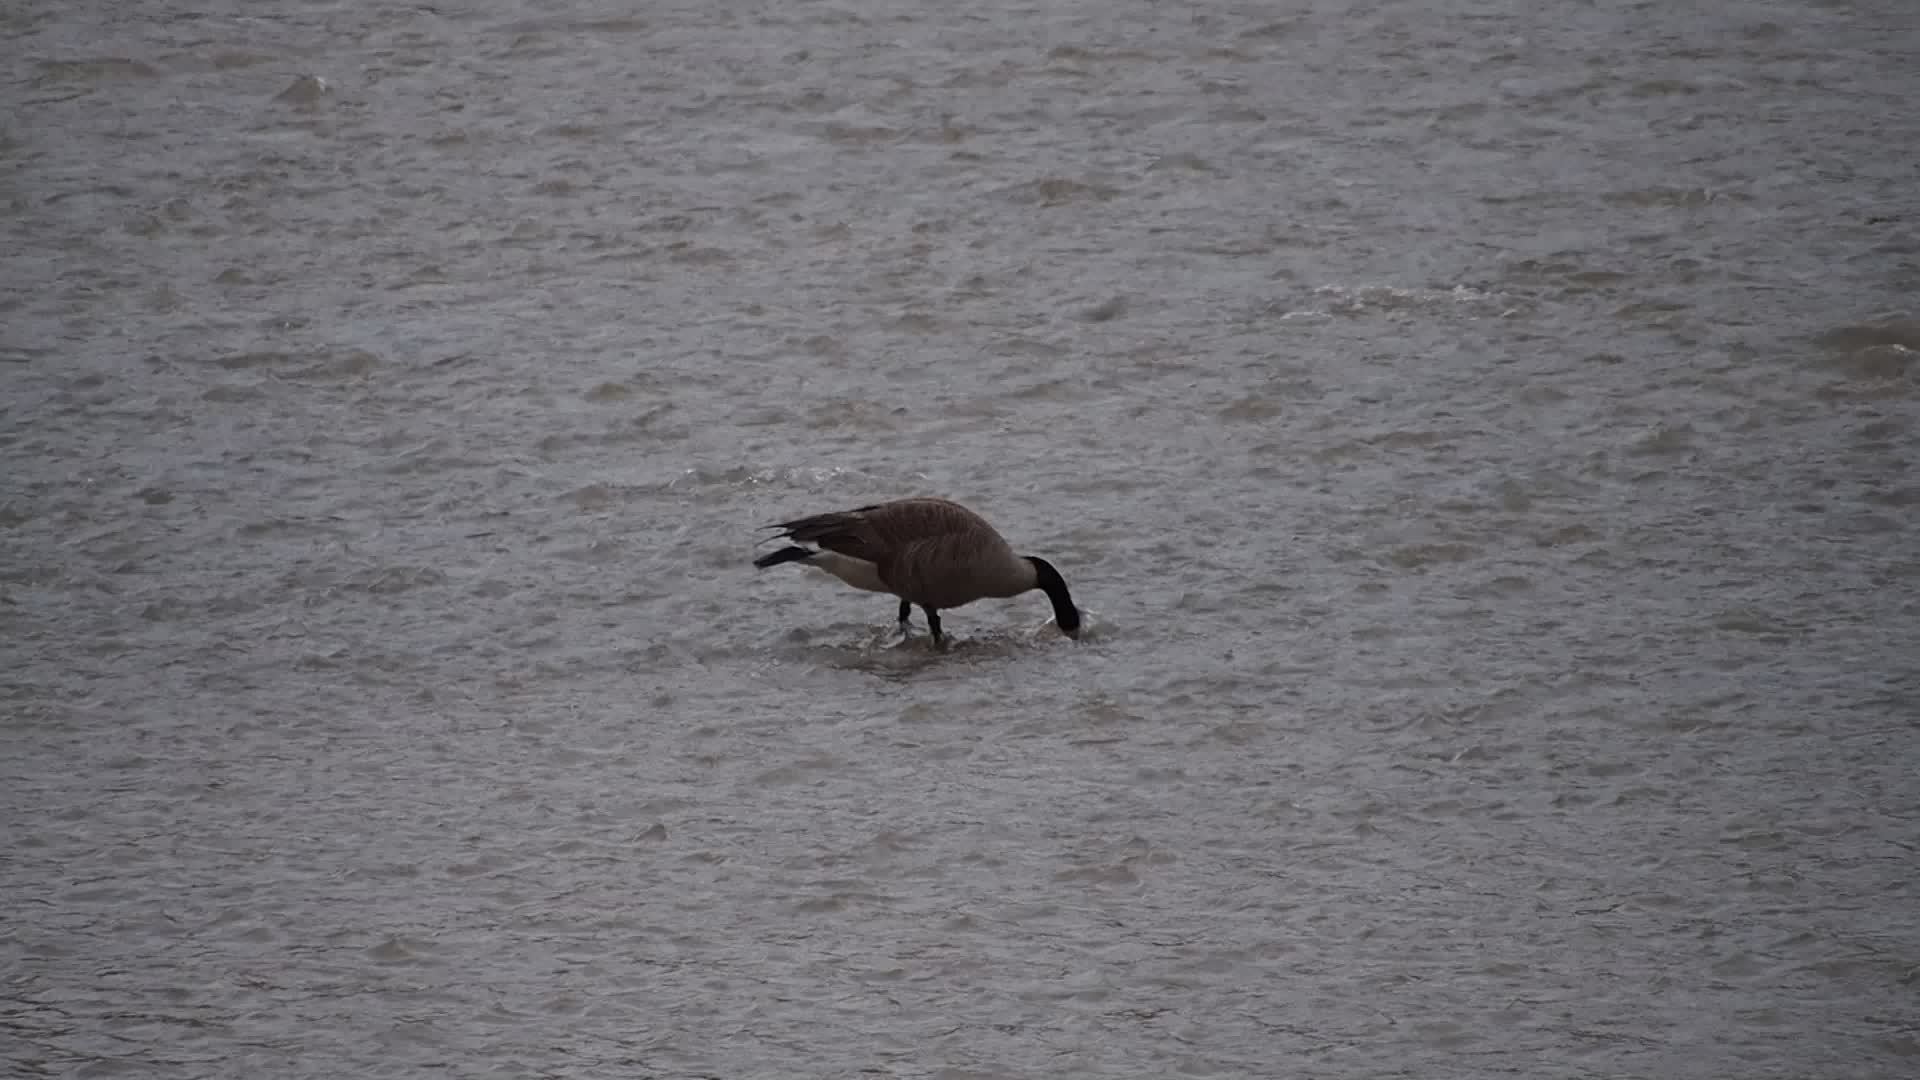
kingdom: Animalia
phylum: Chordata
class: Aves
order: Anseriformes
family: Anatidae
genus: Branta
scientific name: Branta canadensis
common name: Canada goose
